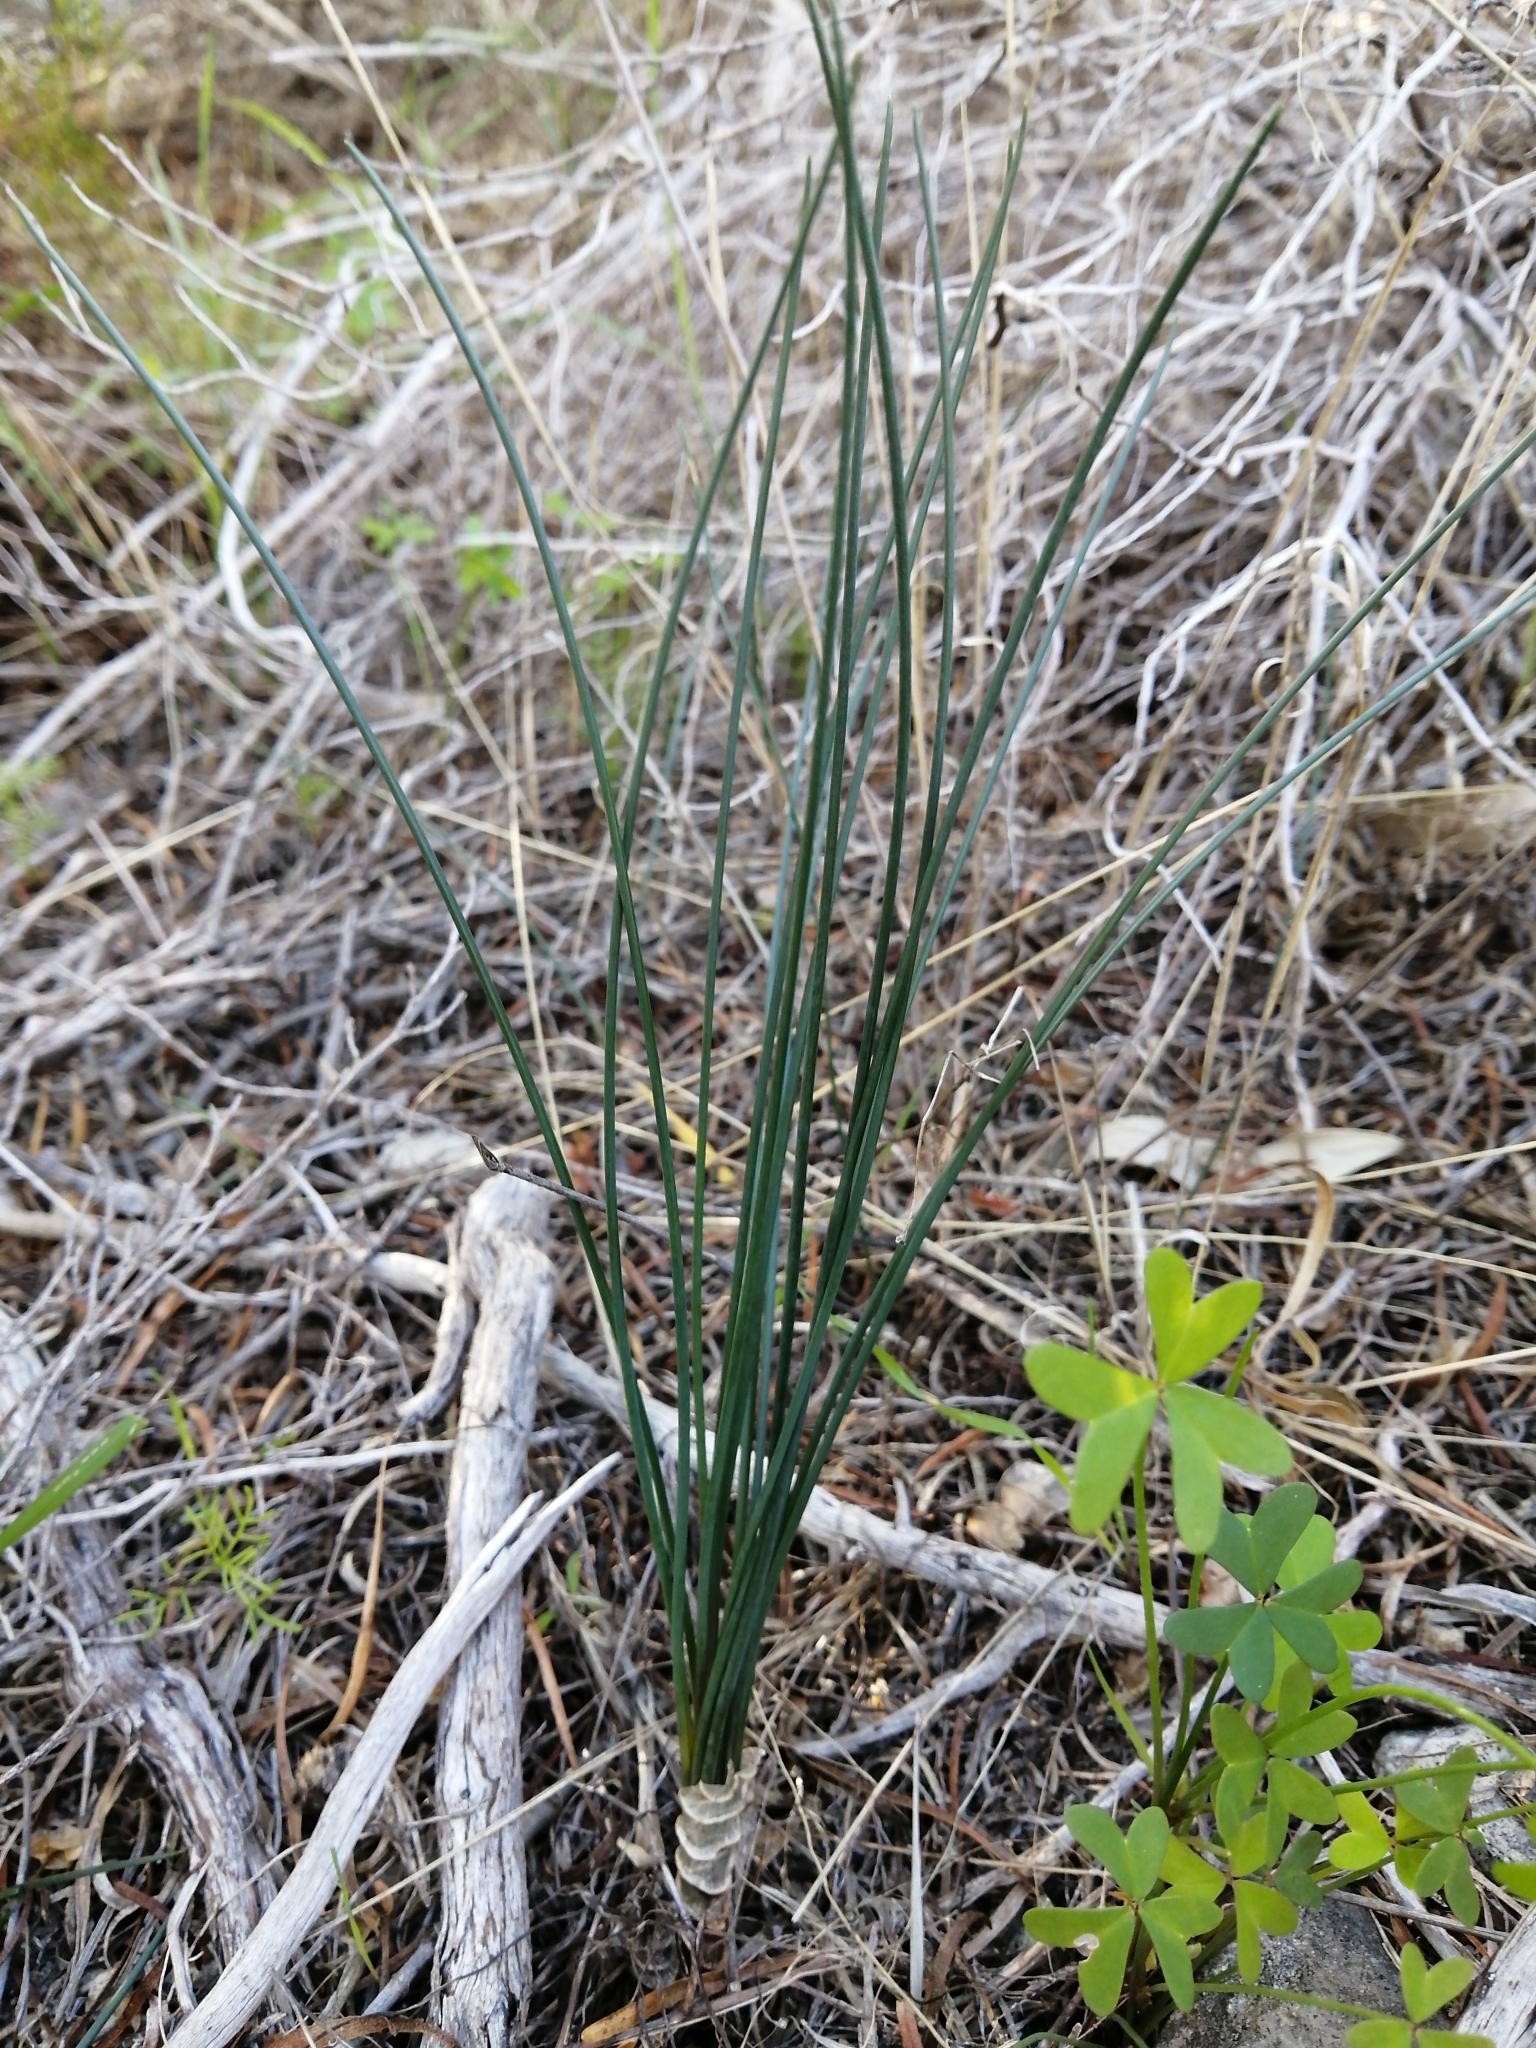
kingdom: Plantae
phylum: Tracheophyta
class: Liliopsida
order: Asparagales
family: Asparagaceae
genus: Drimia
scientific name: Drimia exuviata
